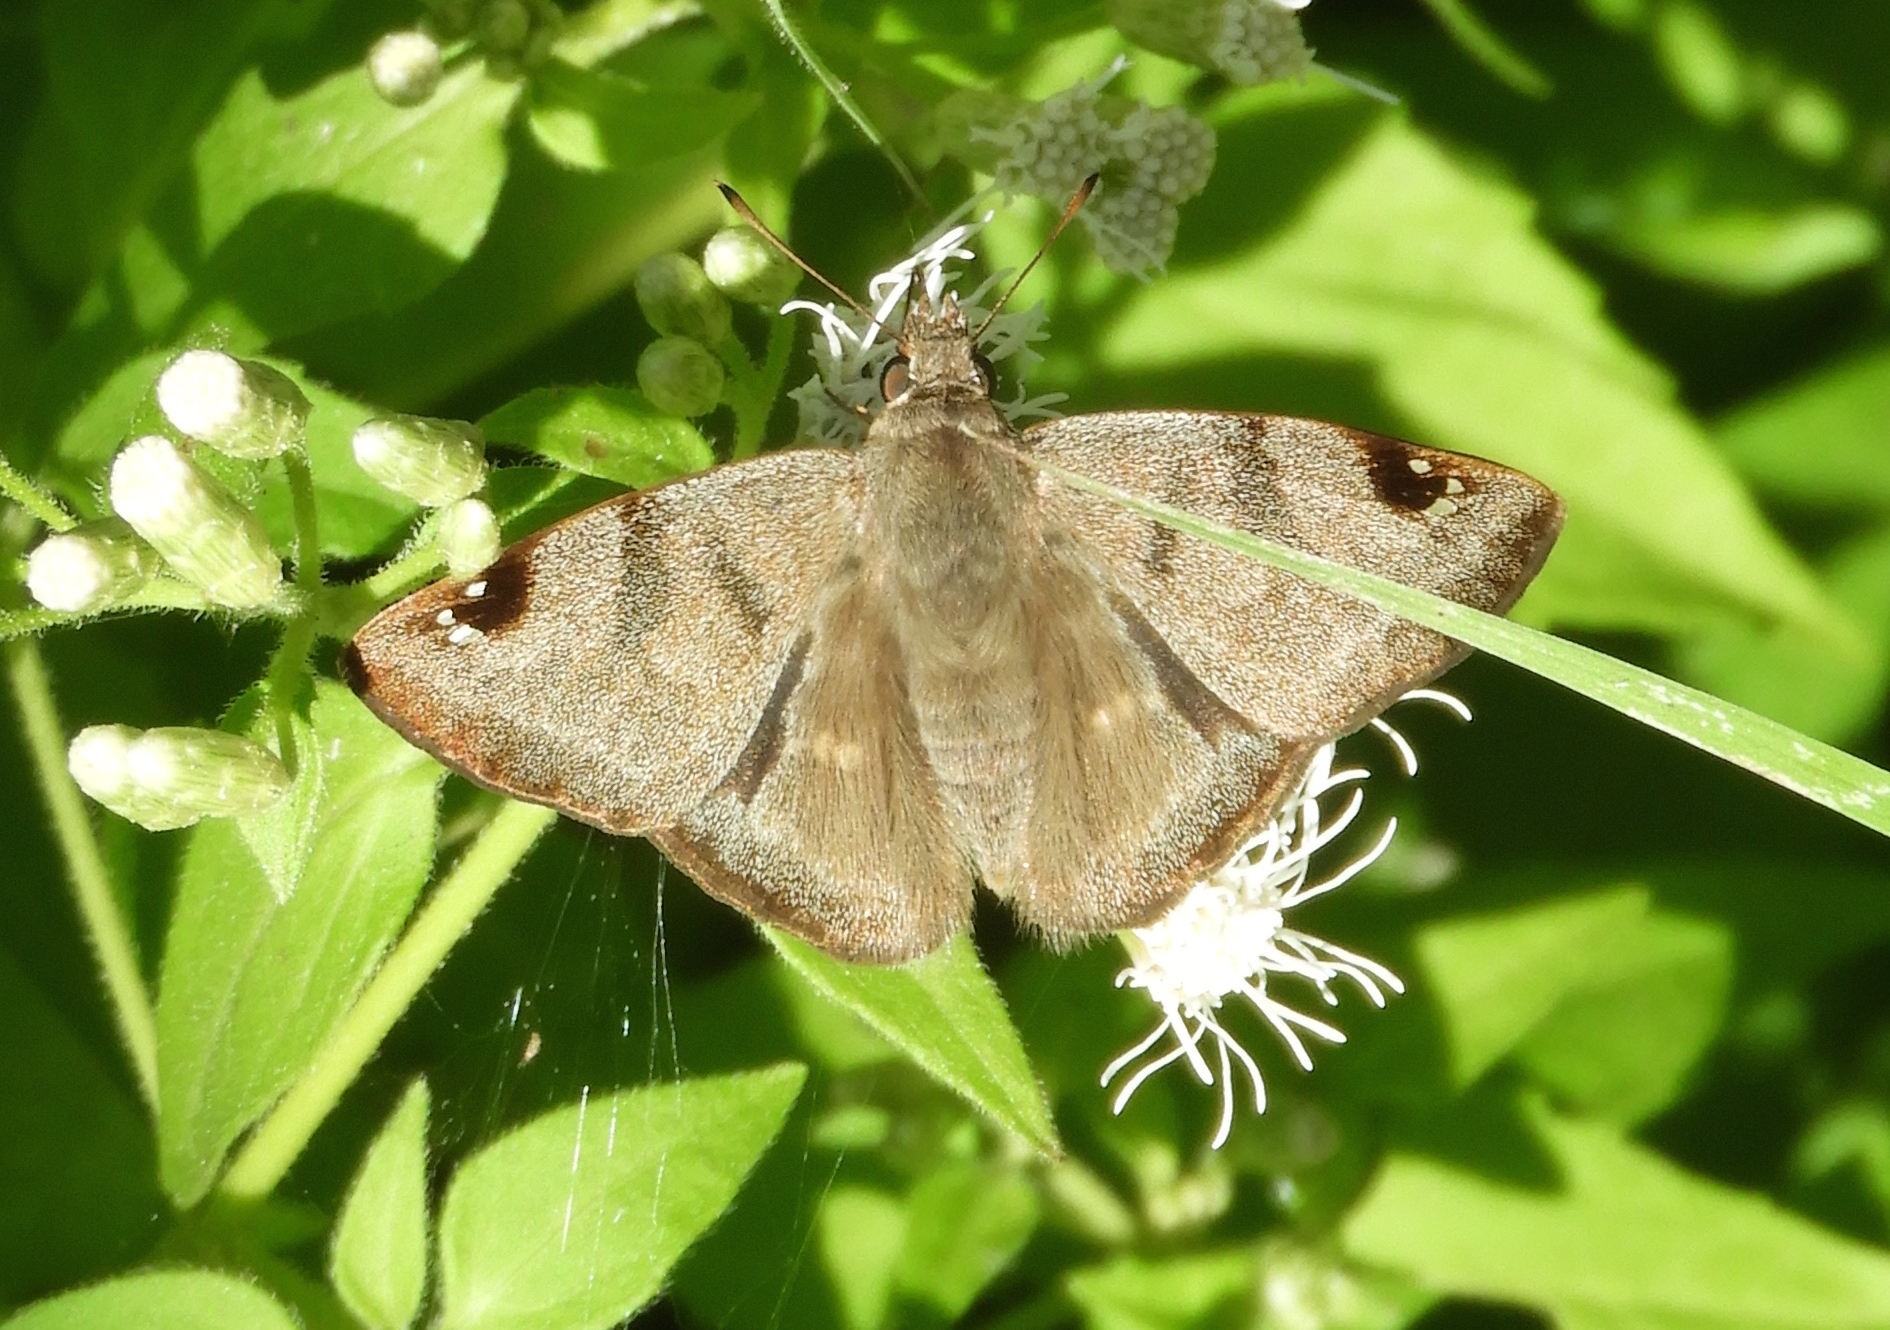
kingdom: Animalia
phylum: Arthropoda
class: Insecta
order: Lepidoptera
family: Hesperiidae
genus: Arteurotia
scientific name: Arteurotia tractipennis
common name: Starred skipper
